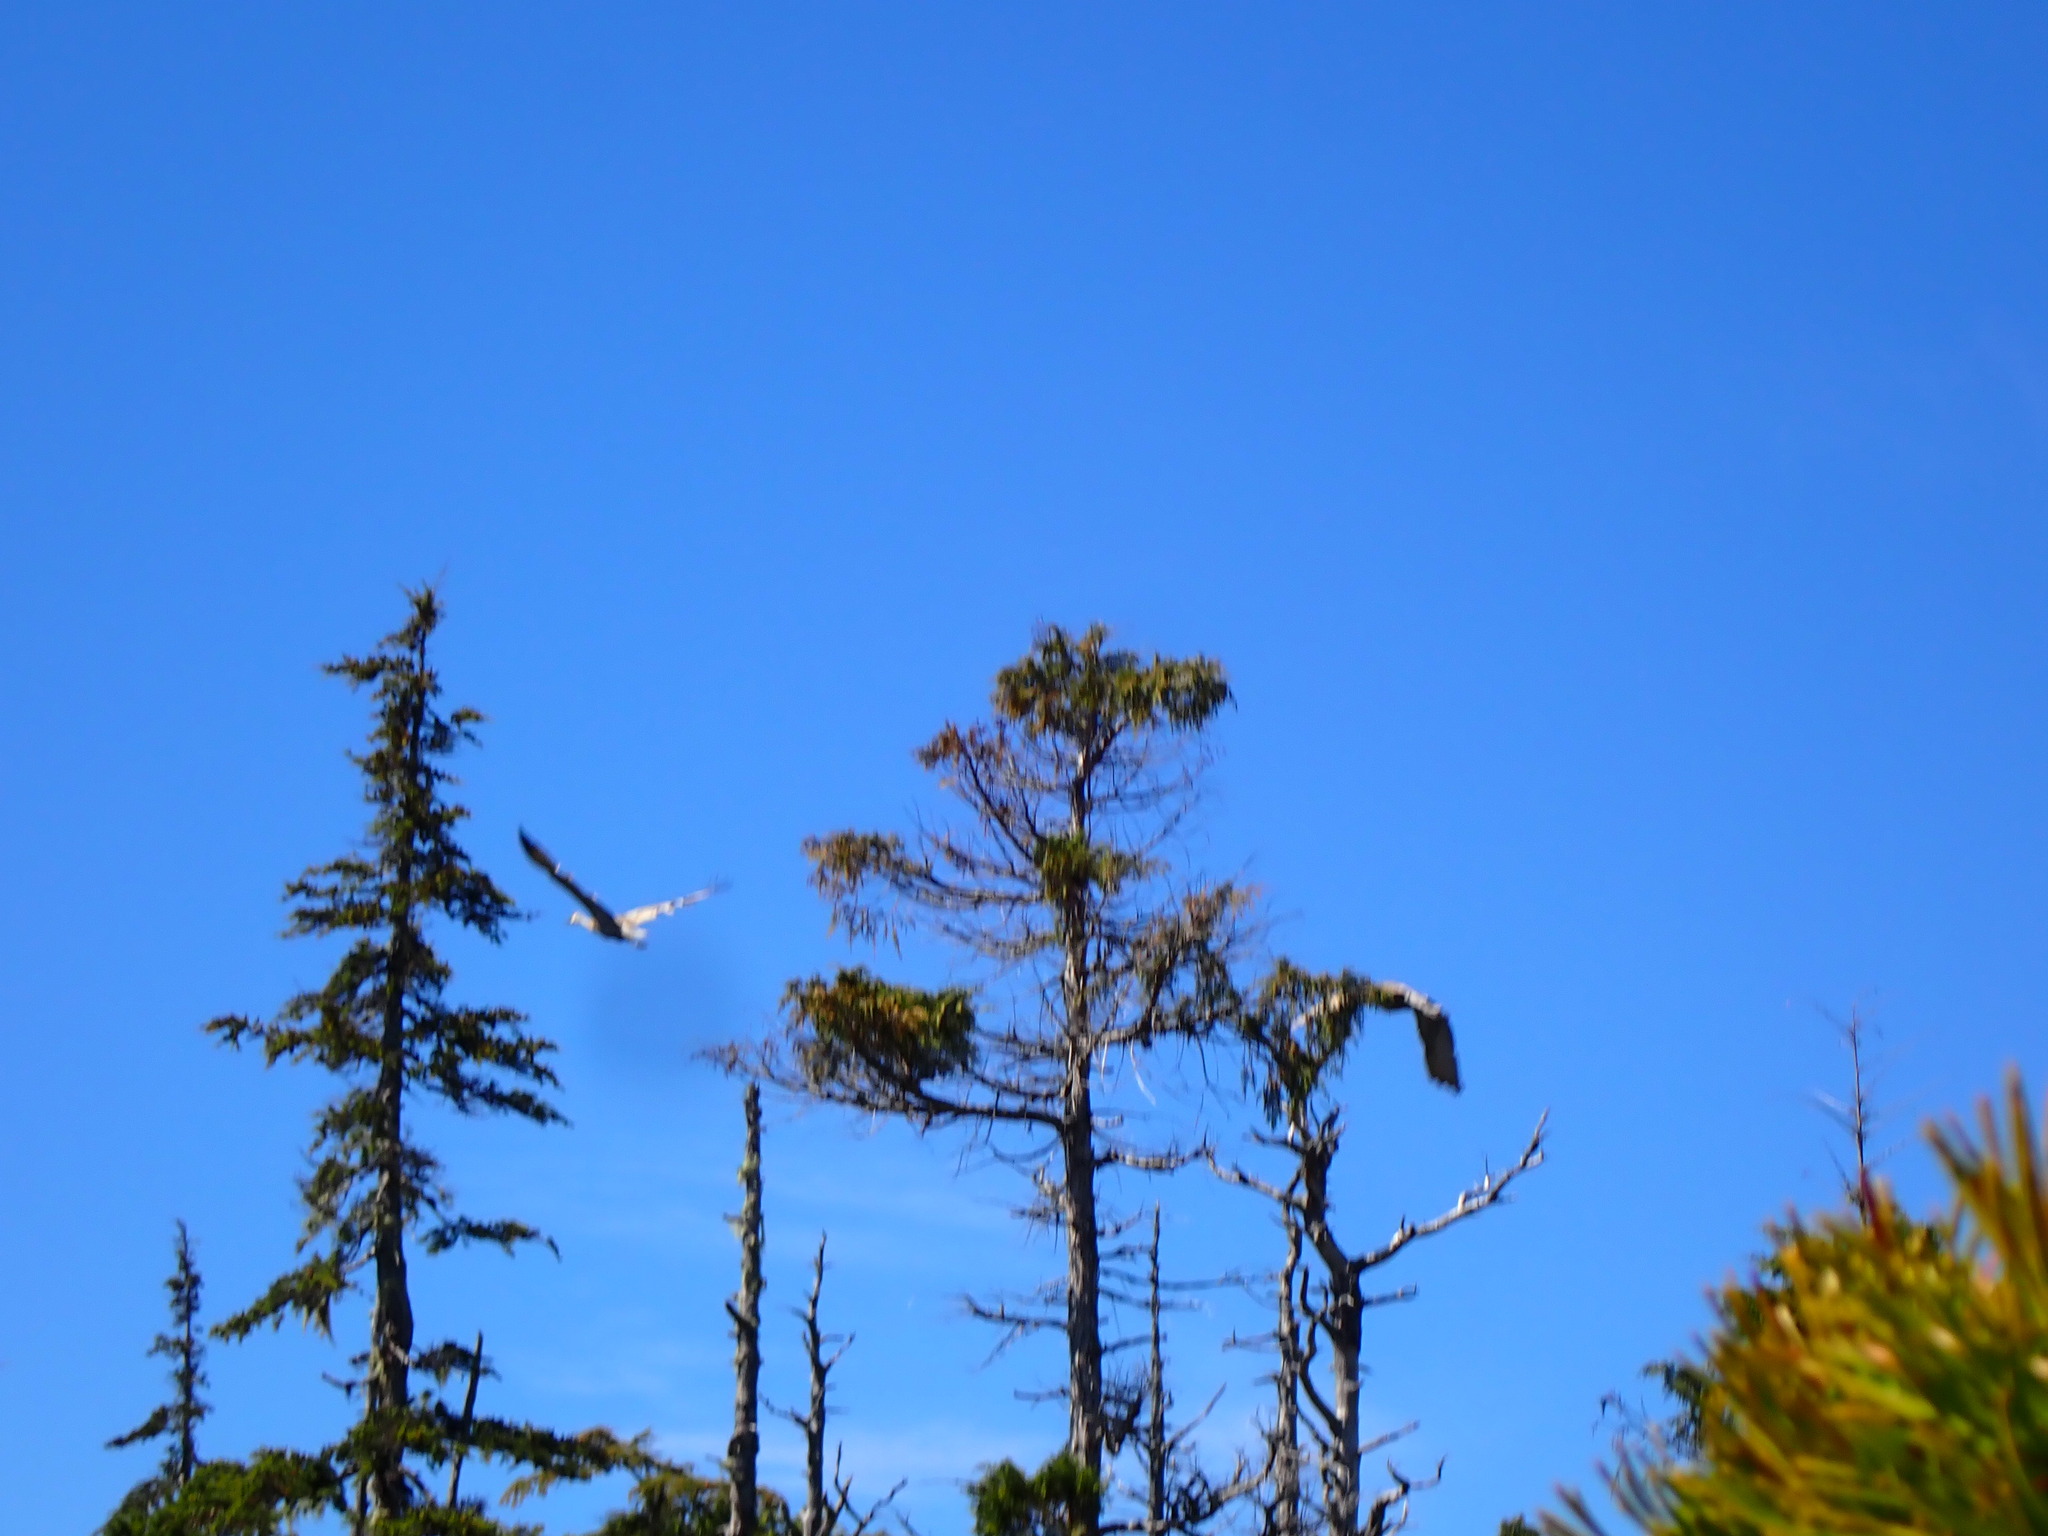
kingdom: Animalia
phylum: Chordata
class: Aves
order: Gruiformes
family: Gruidae
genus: Grus
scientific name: Grus canadensis
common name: Sandhill crane
